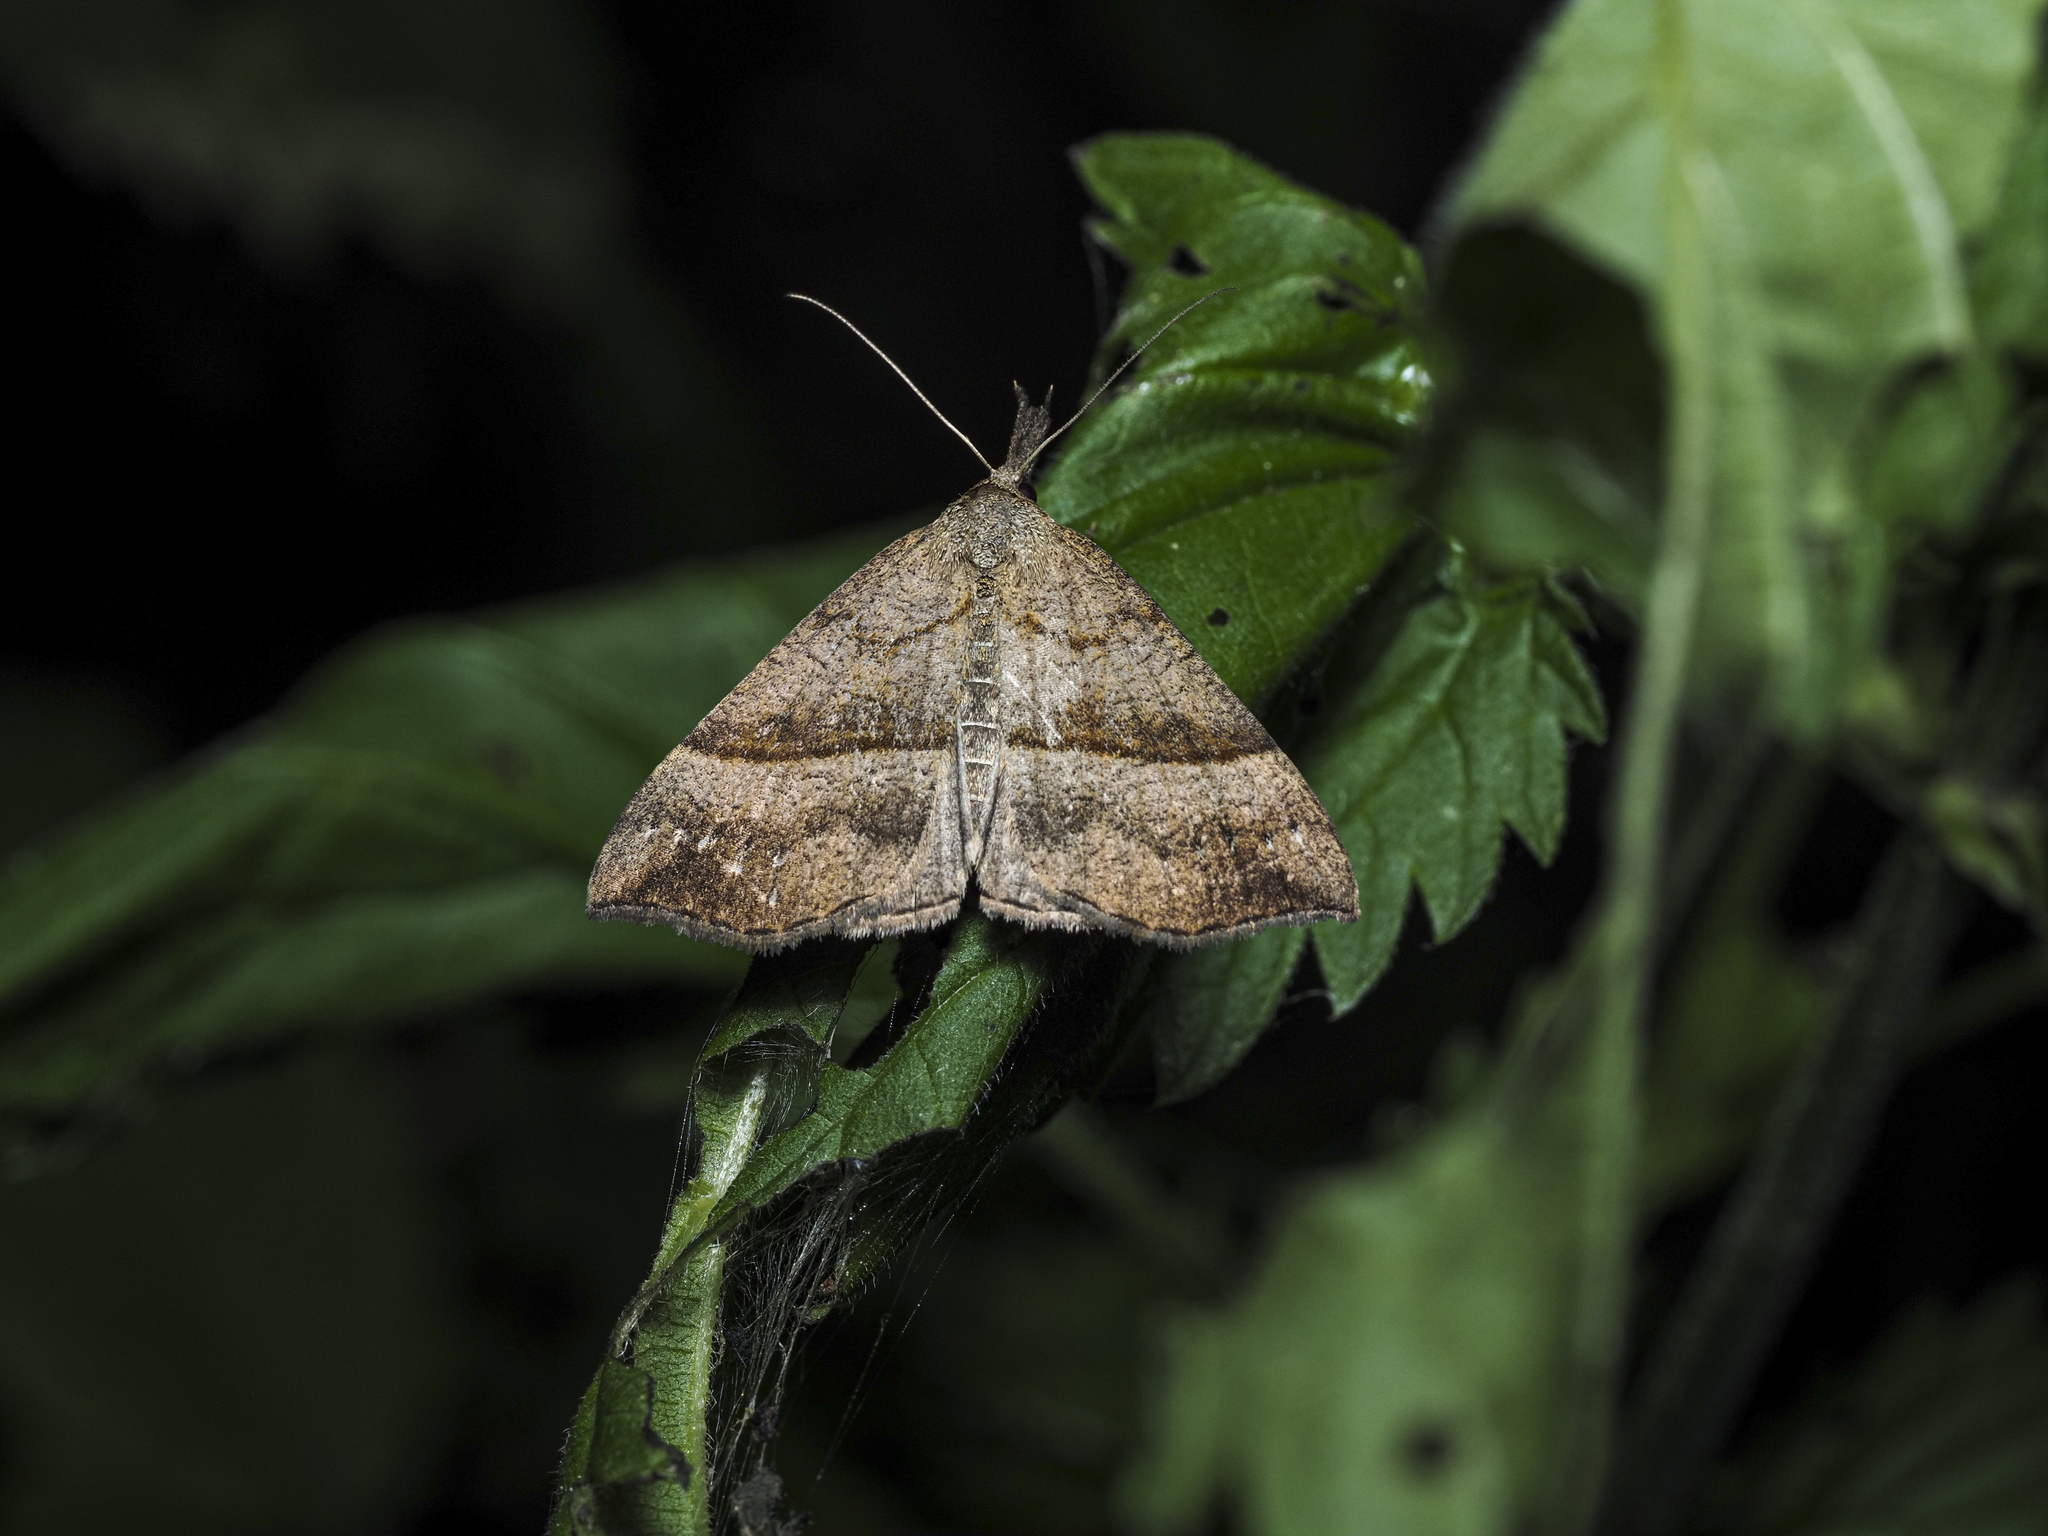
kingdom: Animalia
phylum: Arthropoda
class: Insecta
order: Lepidoptera
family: Erebidae
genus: Hypena
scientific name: Hypena proboscidalis
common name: Snout
